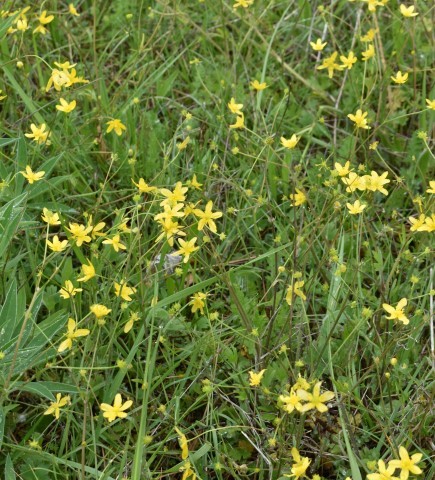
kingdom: Plantae
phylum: Tracheophyta
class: Magnoliopsida
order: Ranunculales
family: Ranunculaceae
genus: Ranunculus
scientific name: Ranunculus occidentalis
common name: Western buttercup
